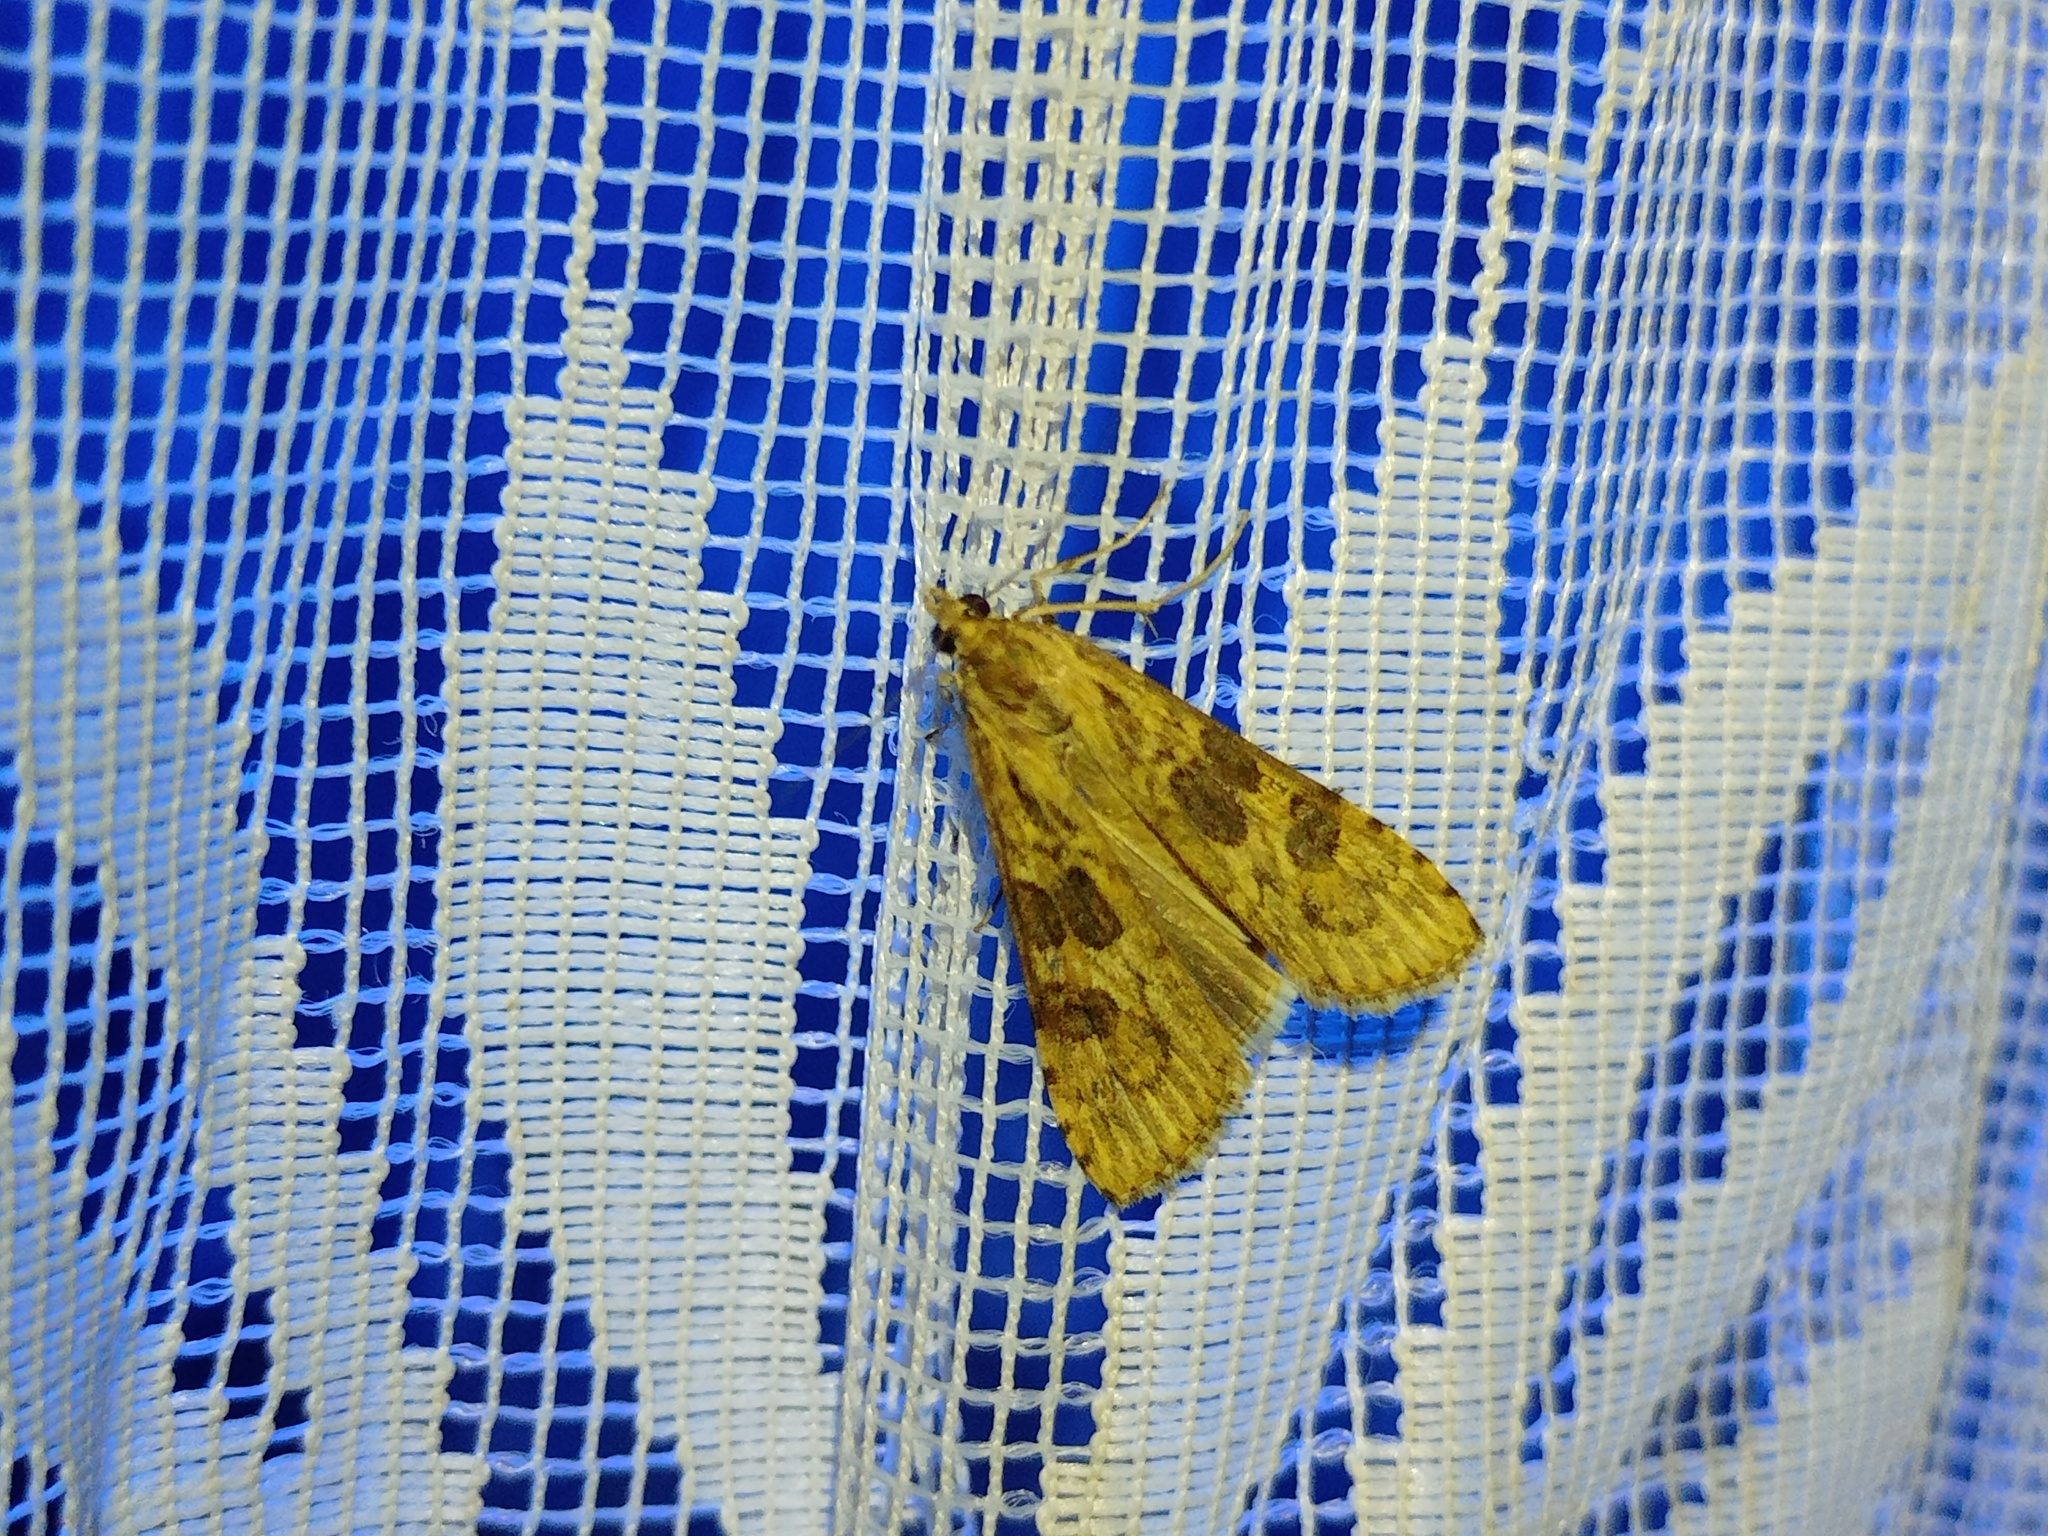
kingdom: Animalia
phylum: Arthropoda
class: Insecta
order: Lepidoptera
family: Crambidae
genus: Nomophila
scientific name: Nomophila noctuella
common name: Rush veneer
